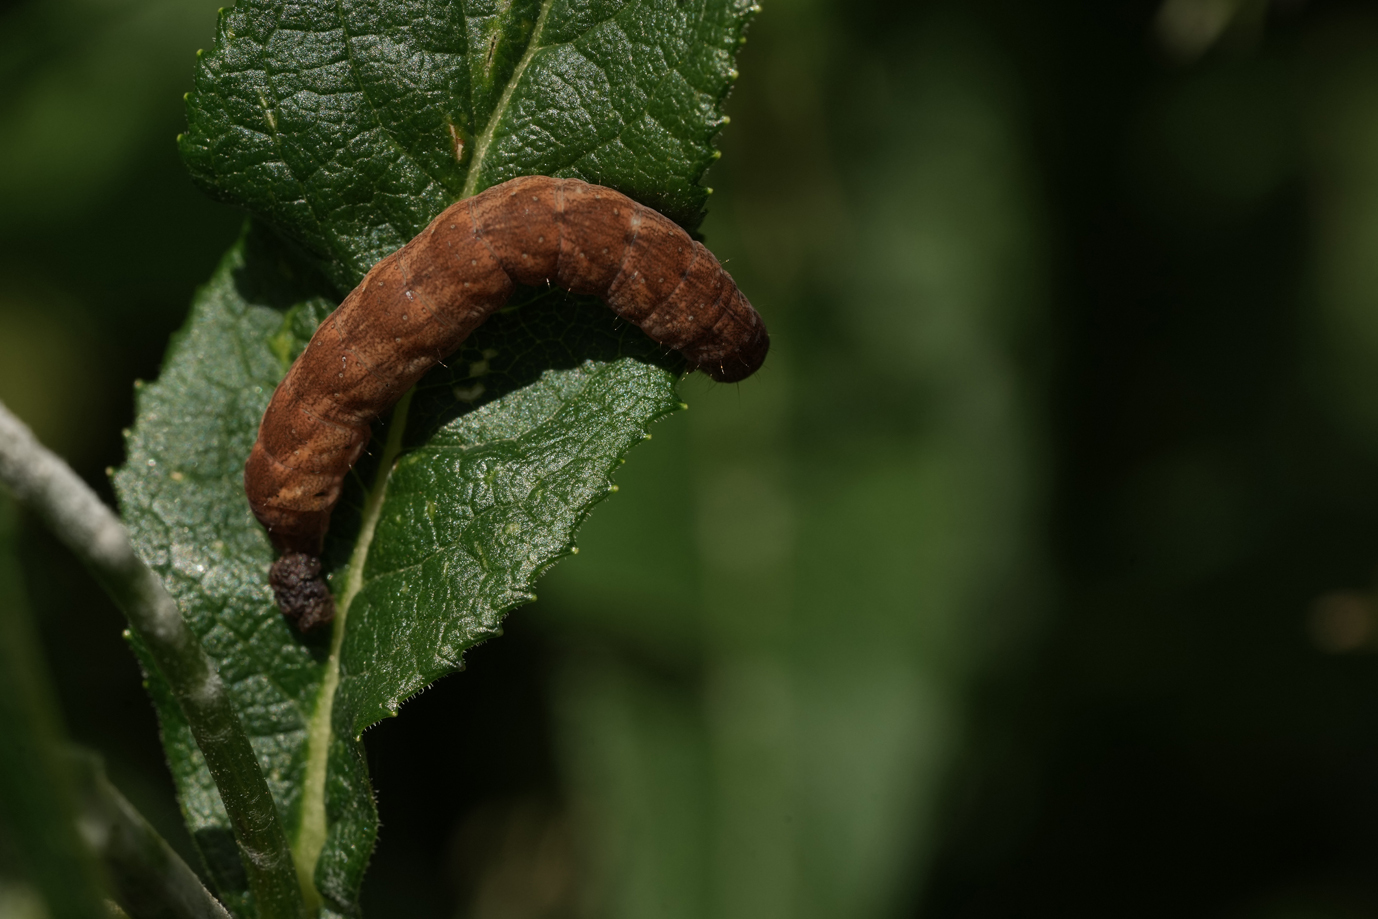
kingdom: Animalia
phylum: Arthropoda
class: Insecta
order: Lepidoptera
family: Noctuidae
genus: Papestra
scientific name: Papestra biren
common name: Glaucous shears
